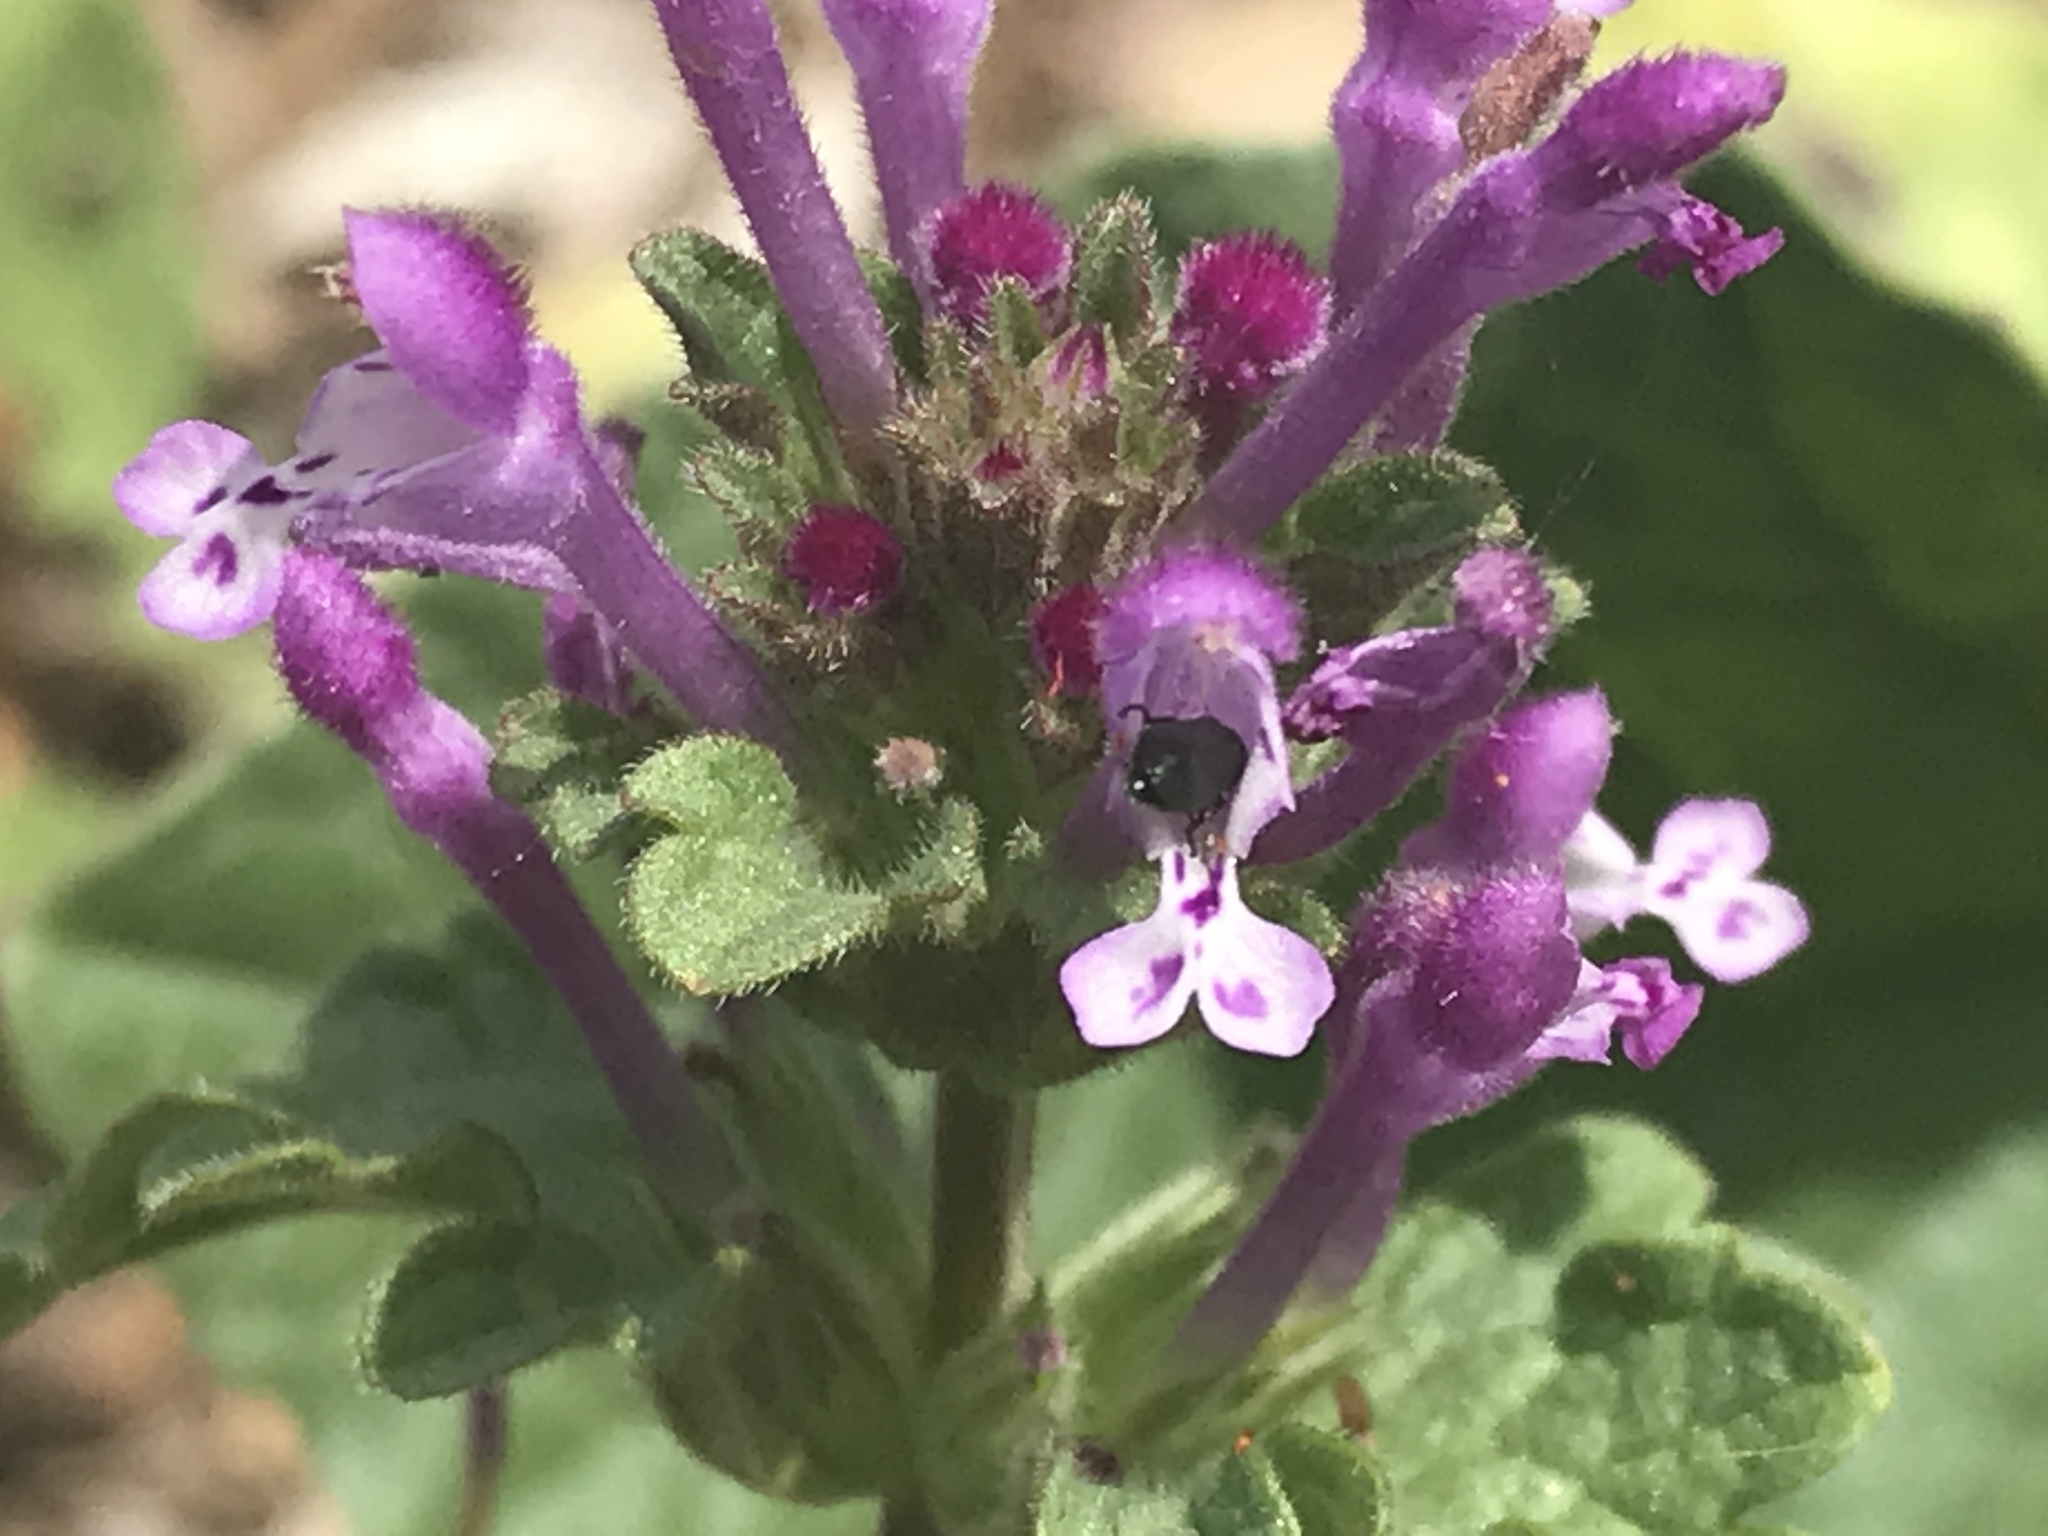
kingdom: Plantae
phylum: Tracheophyta
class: Magnoliopsida
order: Lamiales
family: Lamiaceae
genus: Lamium
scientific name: Lamium amplexicaule
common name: Henbit dead-nettle
